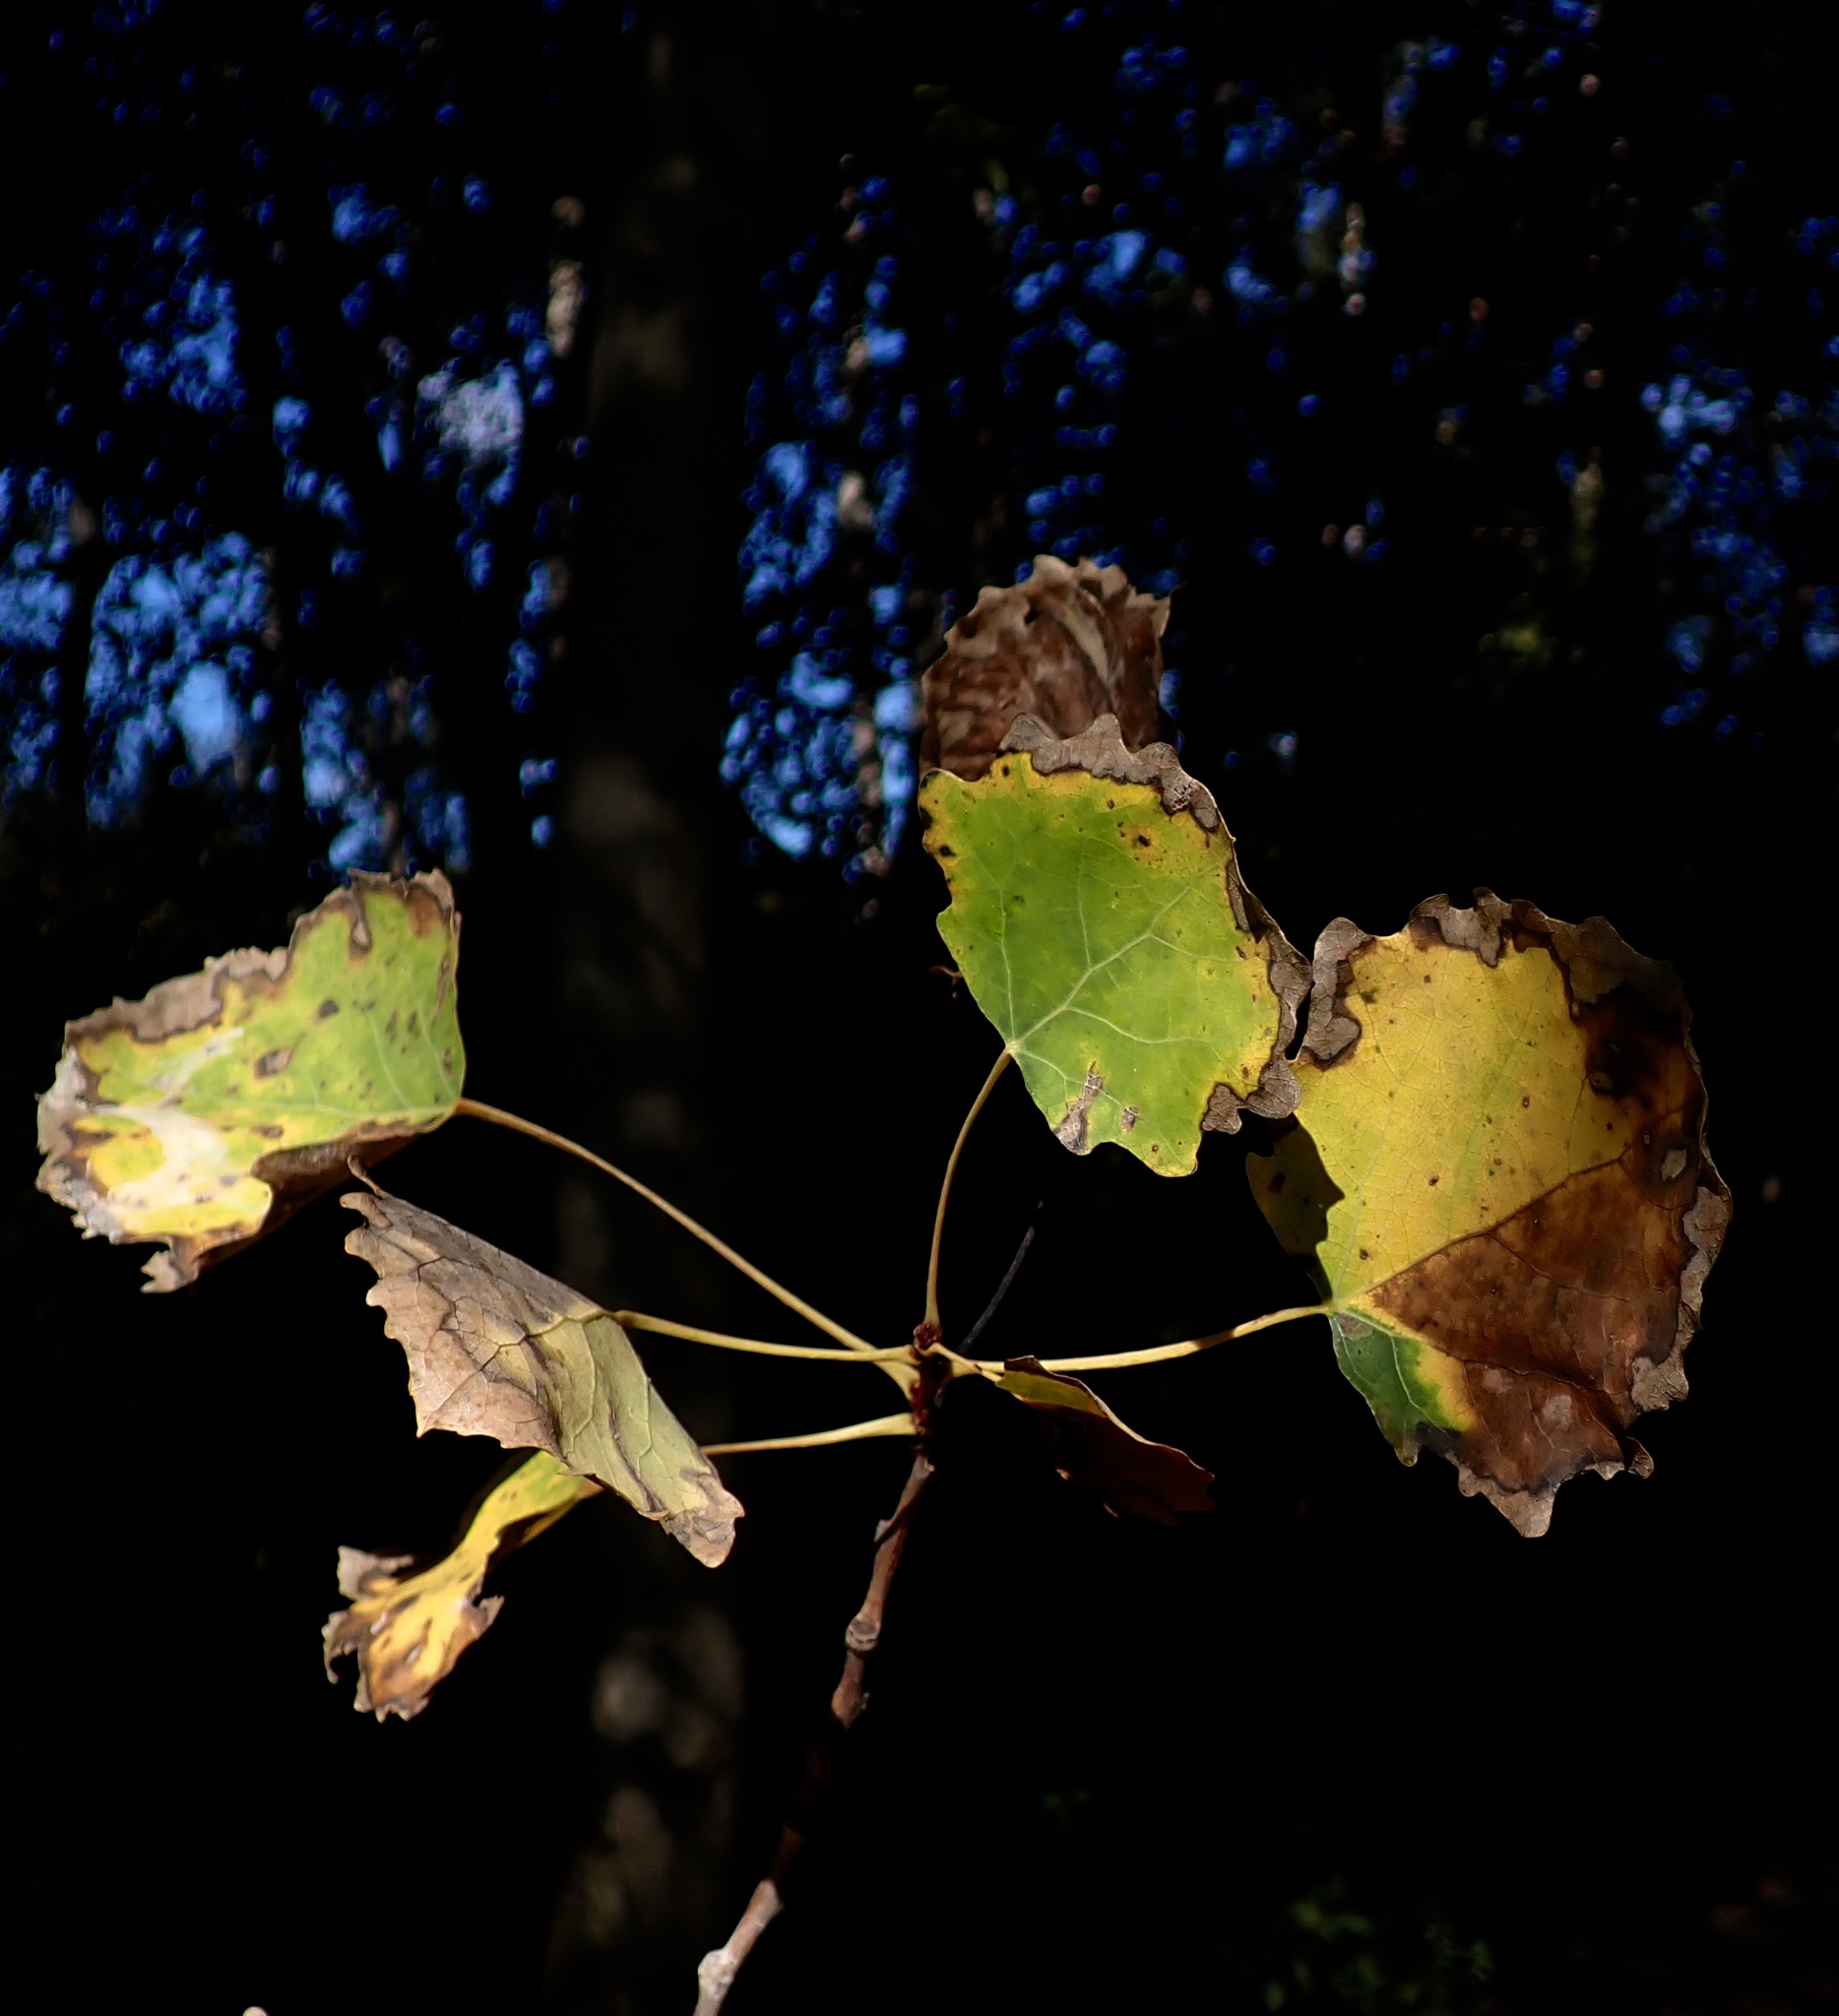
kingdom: Animalia
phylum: Arthropoda
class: Insecta
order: Lepidoptera
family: Nepticulidae
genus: Ectoedemia
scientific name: Ectoedemia argyropeza
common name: Virgin pigmy
